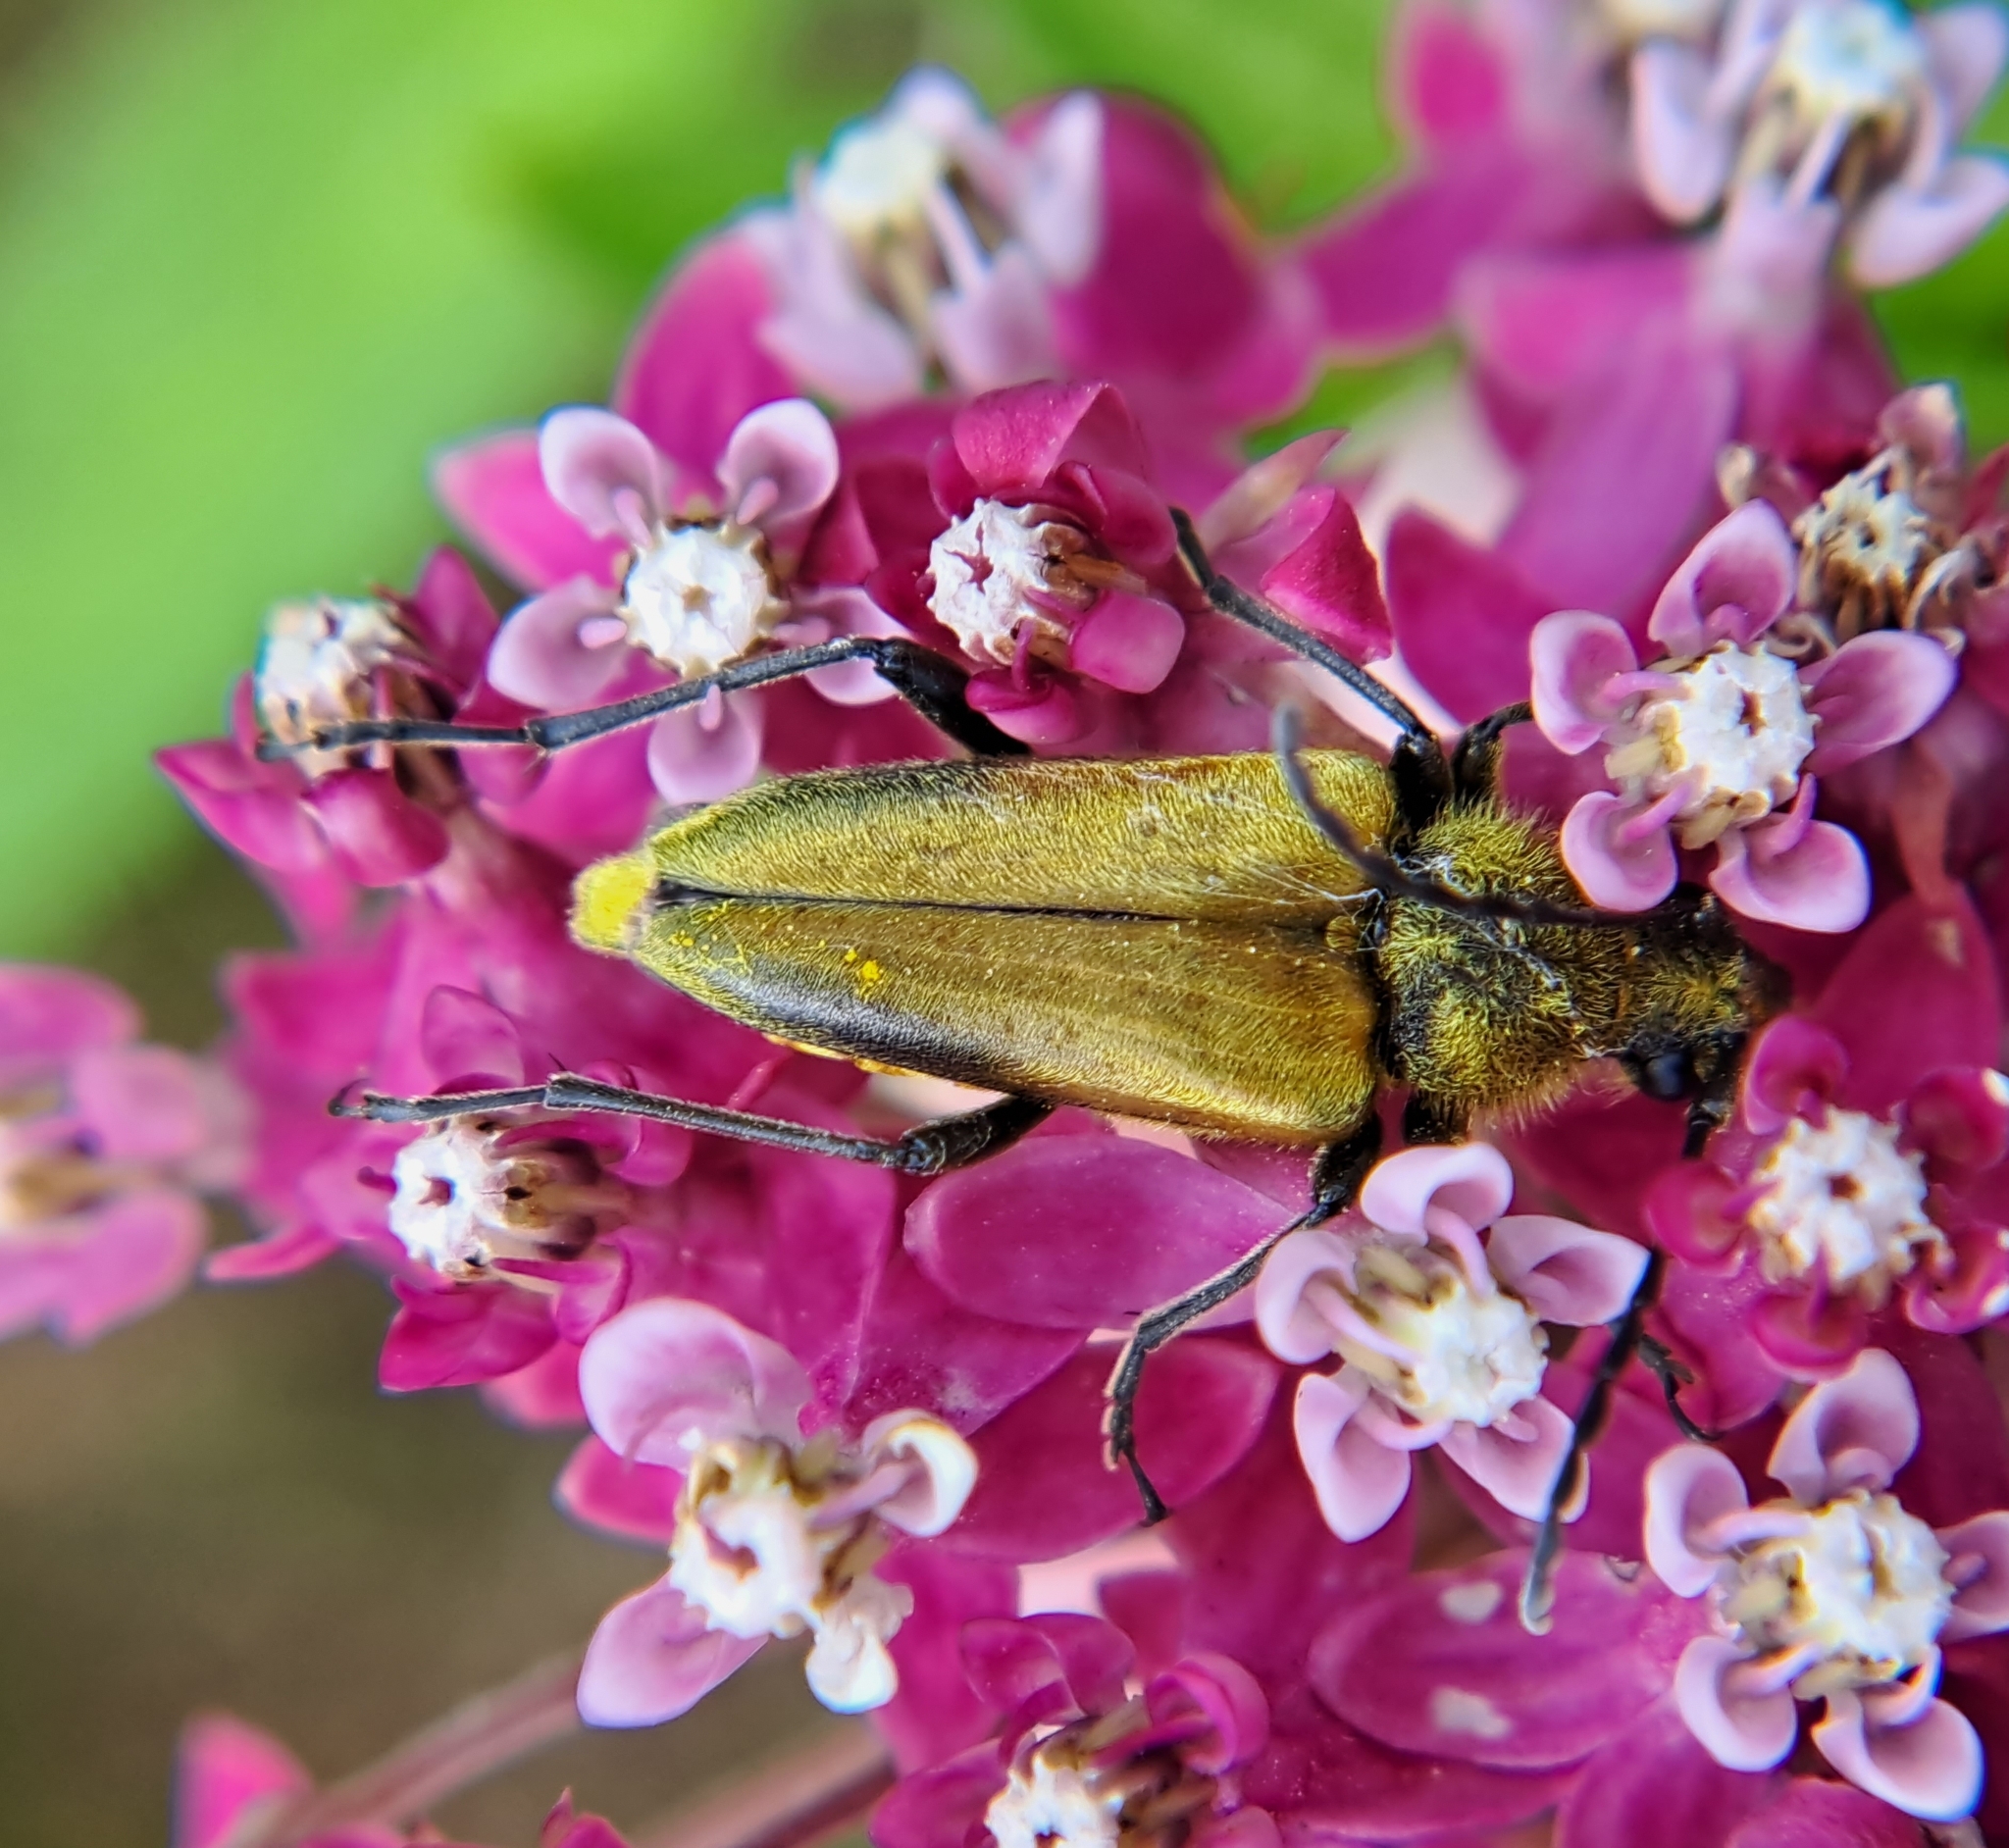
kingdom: Animalia
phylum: Arthropoda
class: Insecta
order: Coleoptera
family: Cerambycidae
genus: Cosmosalia
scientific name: Cosmosalia chrysocoma
